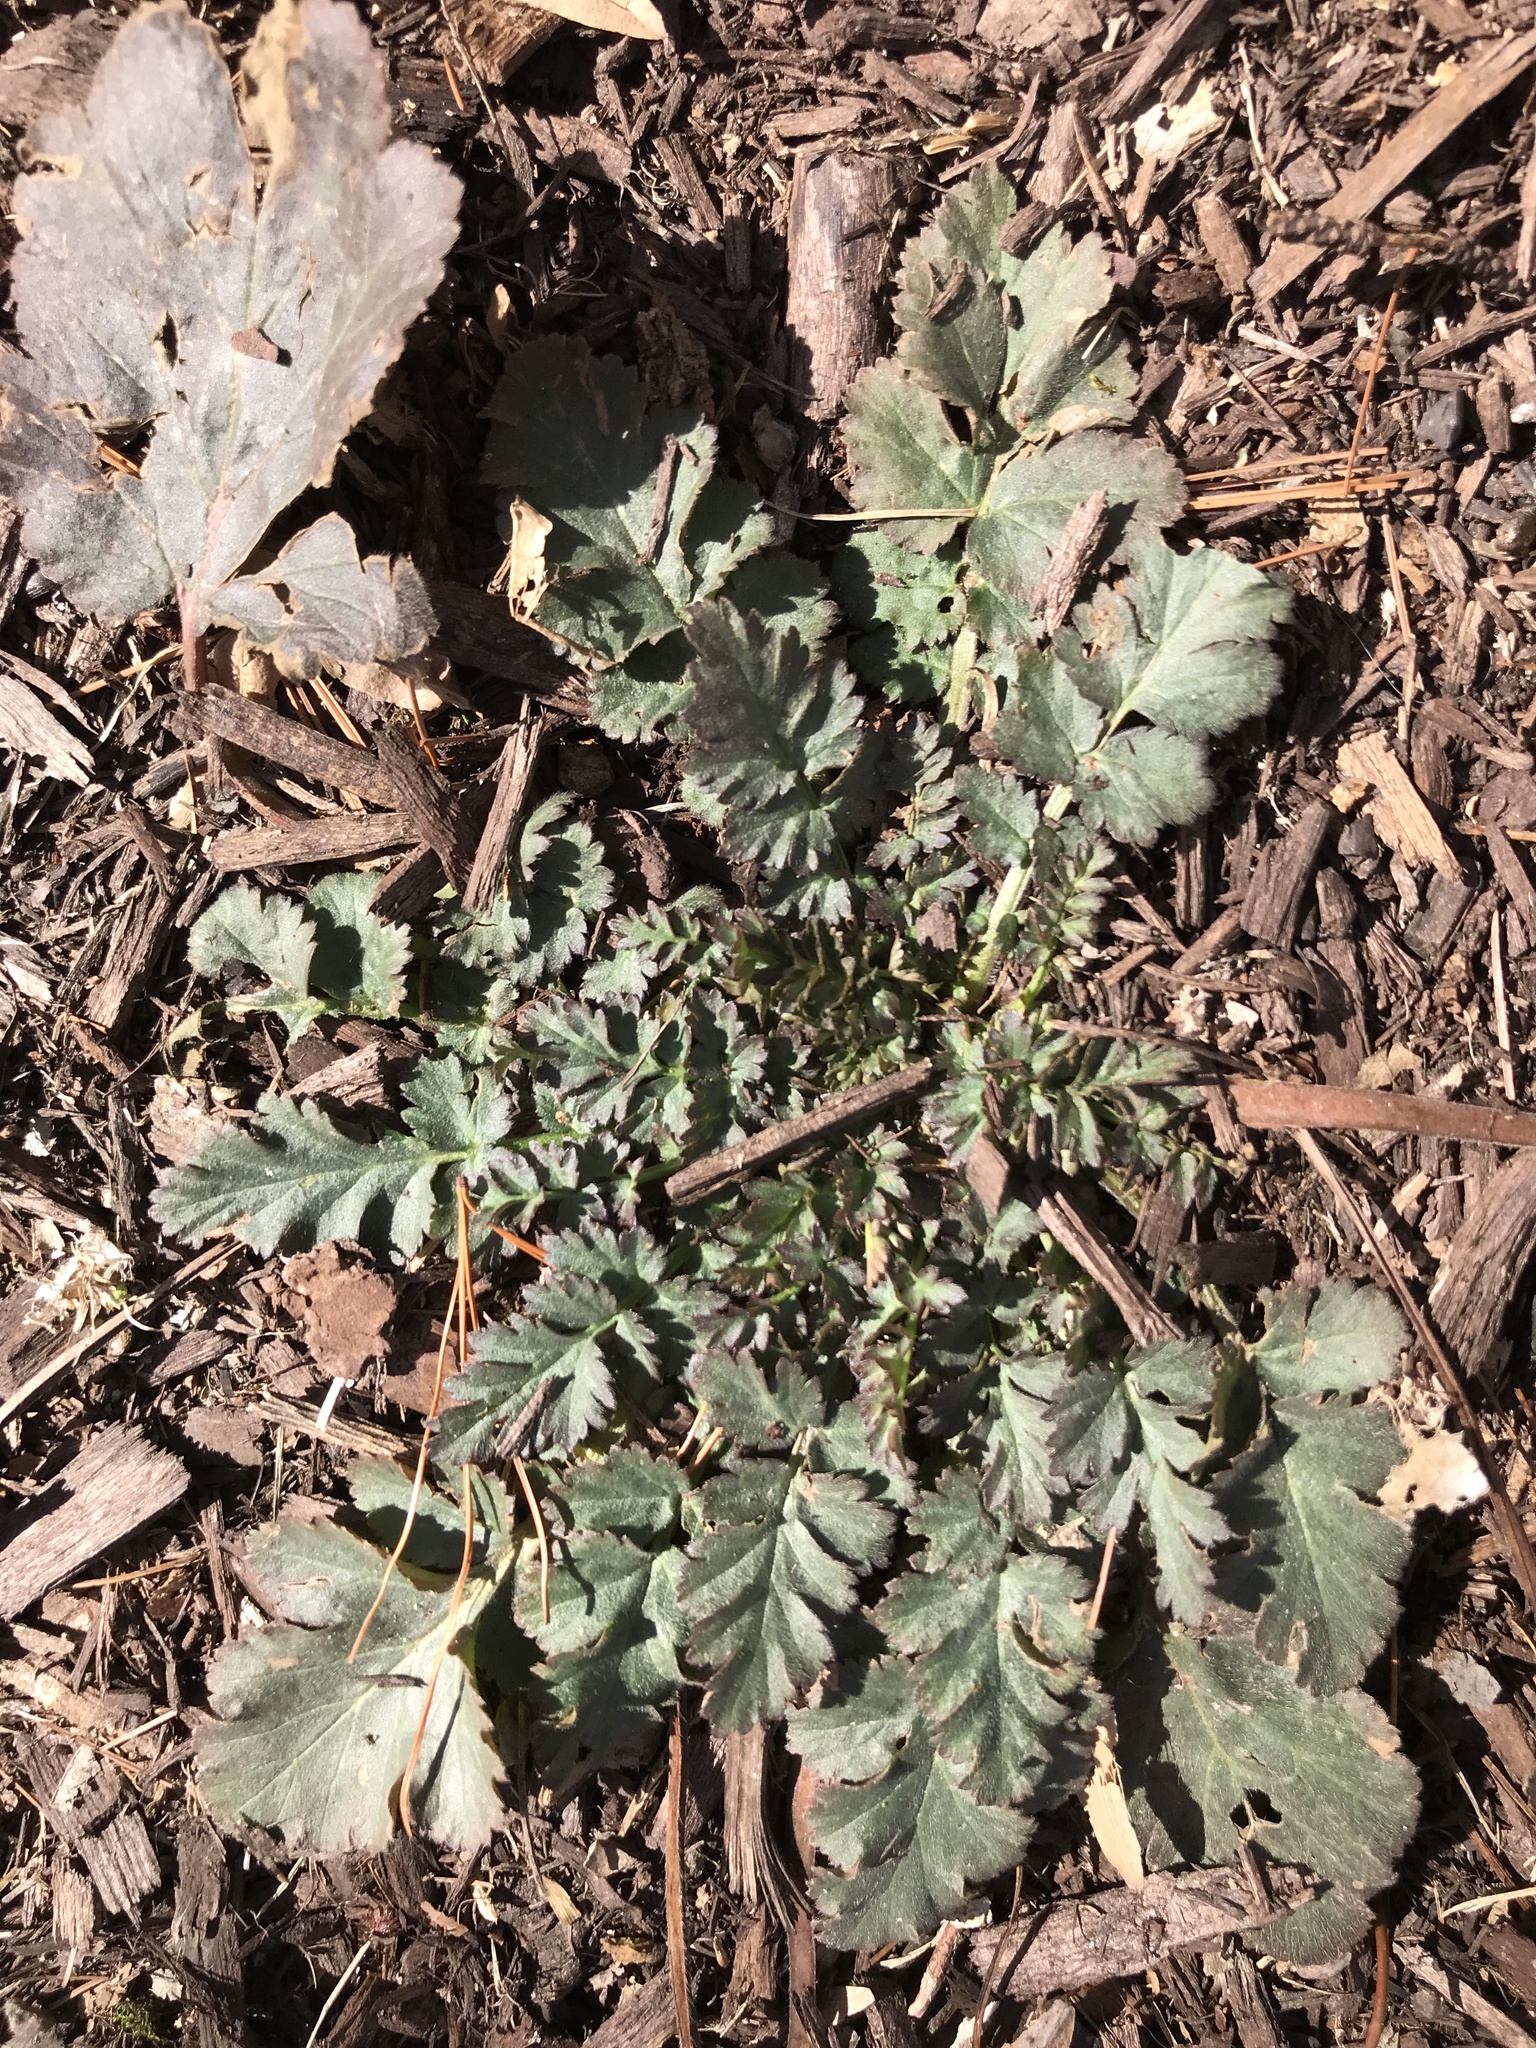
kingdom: Plantae
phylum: Tracheophyta
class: Magnoliopsida
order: Rosales
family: Rosaceae
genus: Geum
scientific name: Geum canadense
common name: White avens
